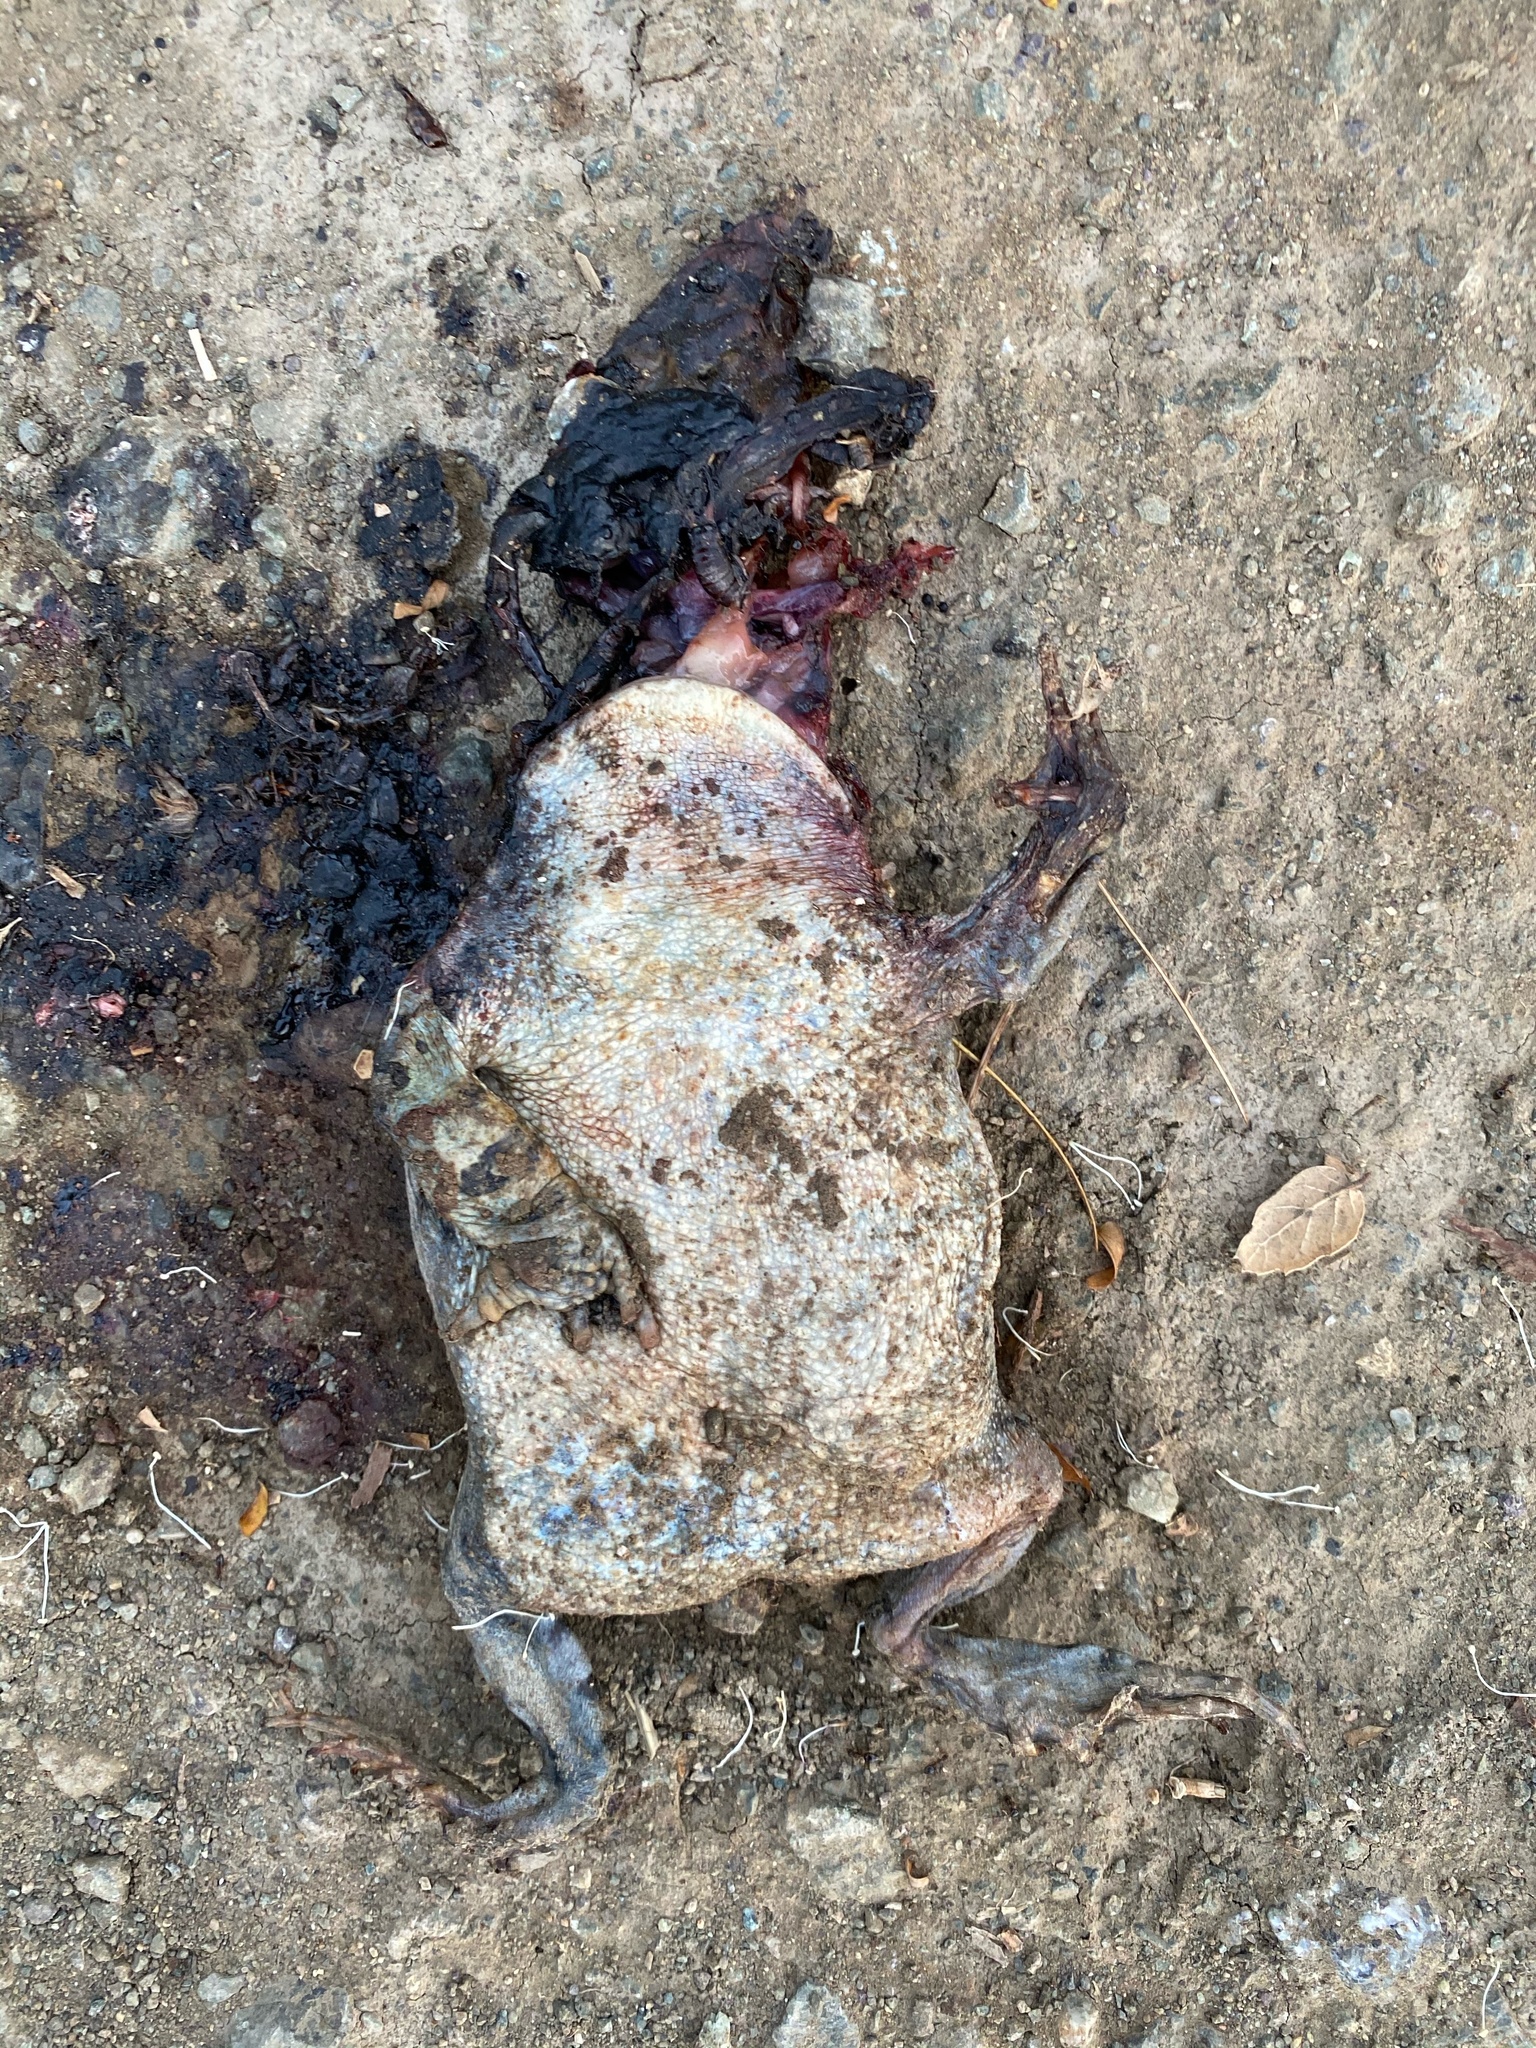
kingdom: Animalia
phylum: Chordata
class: Amphibia
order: Anura
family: Bufonidae
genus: Anaxyrus
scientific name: Anaxyrus boreas
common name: Western toad
